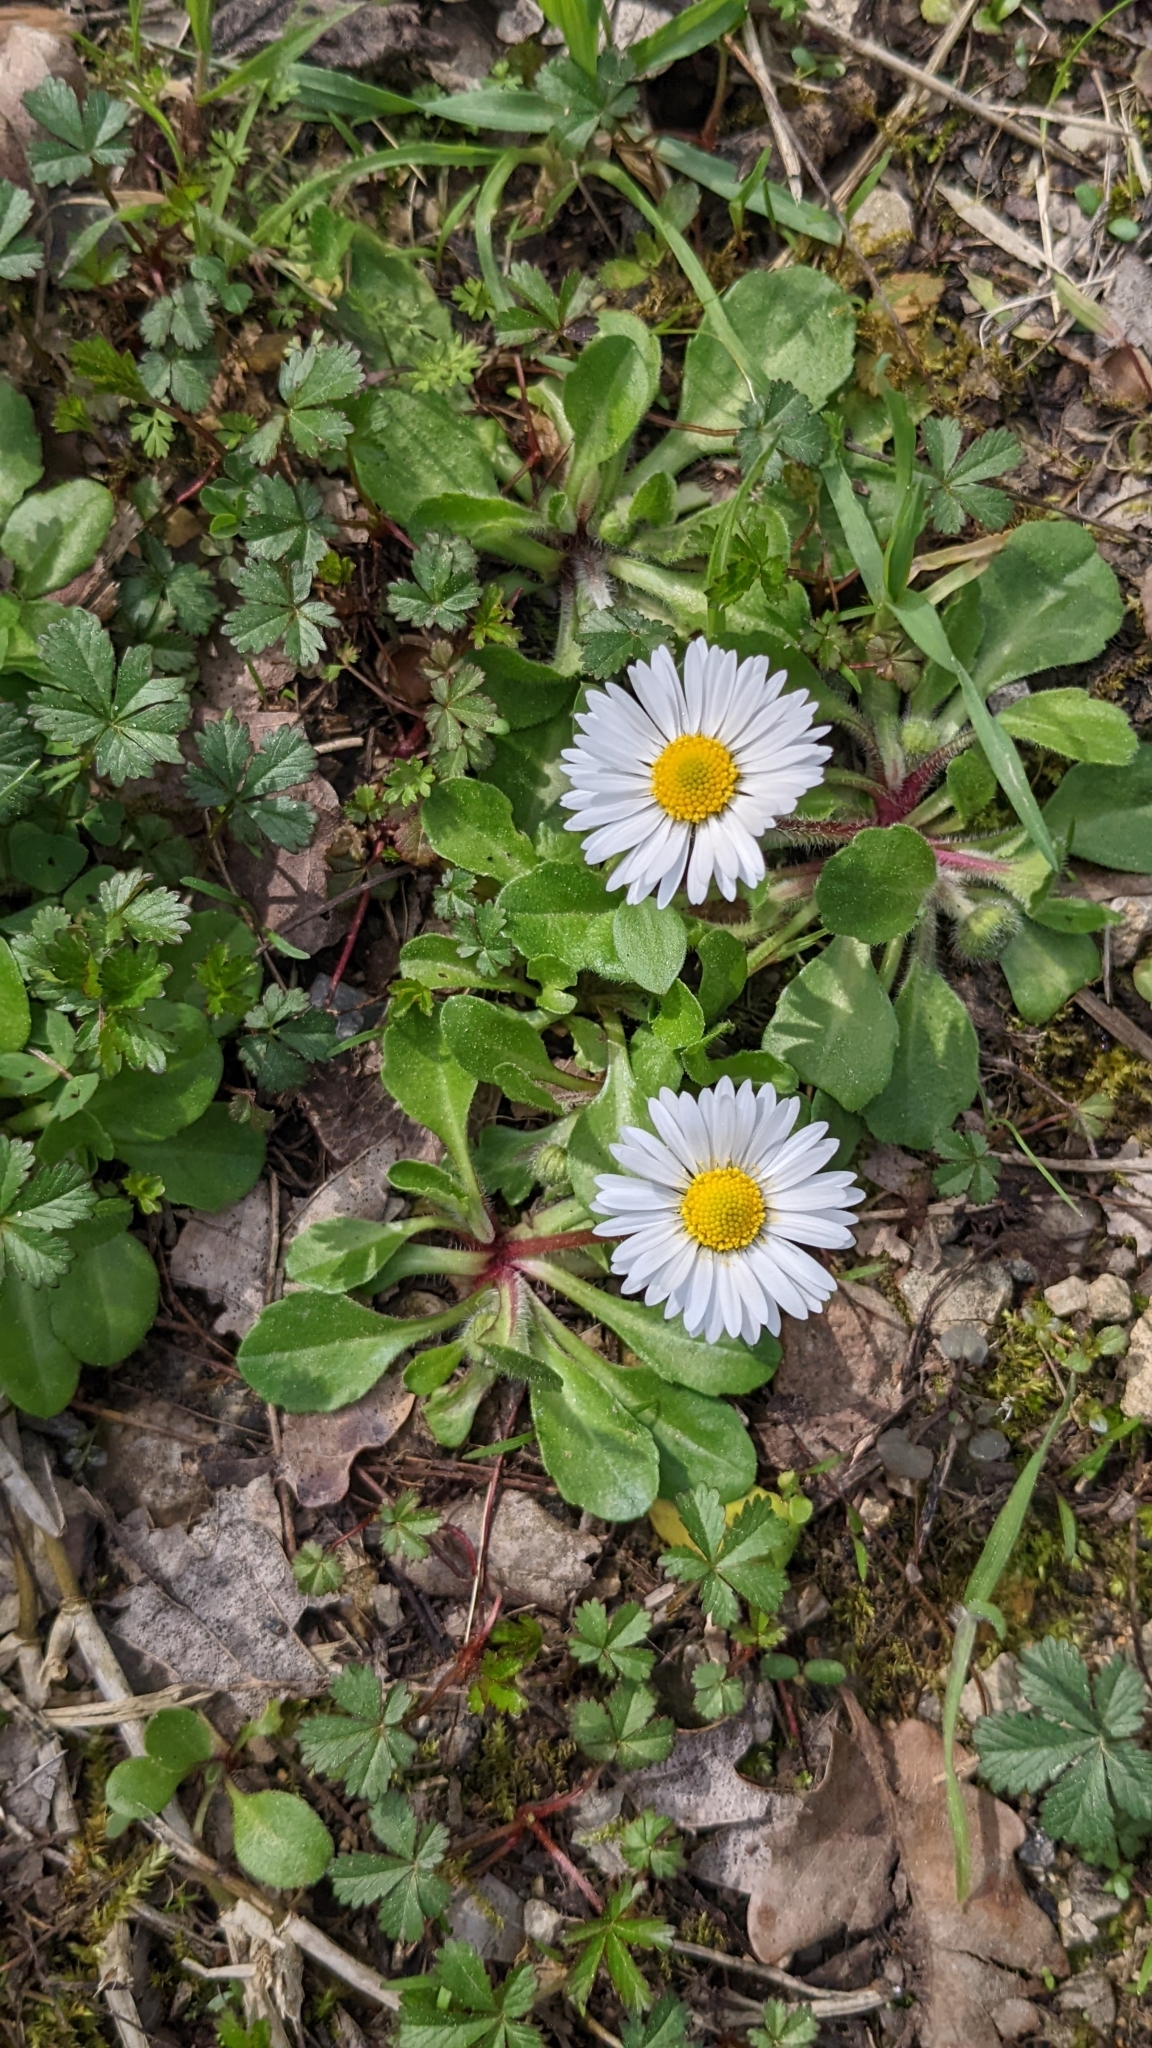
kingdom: Plantae
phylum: Tracheophyta
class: Magnoliopsida
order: Asterales
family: Asteraceae
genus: Bellis
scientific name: Bellis perennis
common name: Lawndaisy
